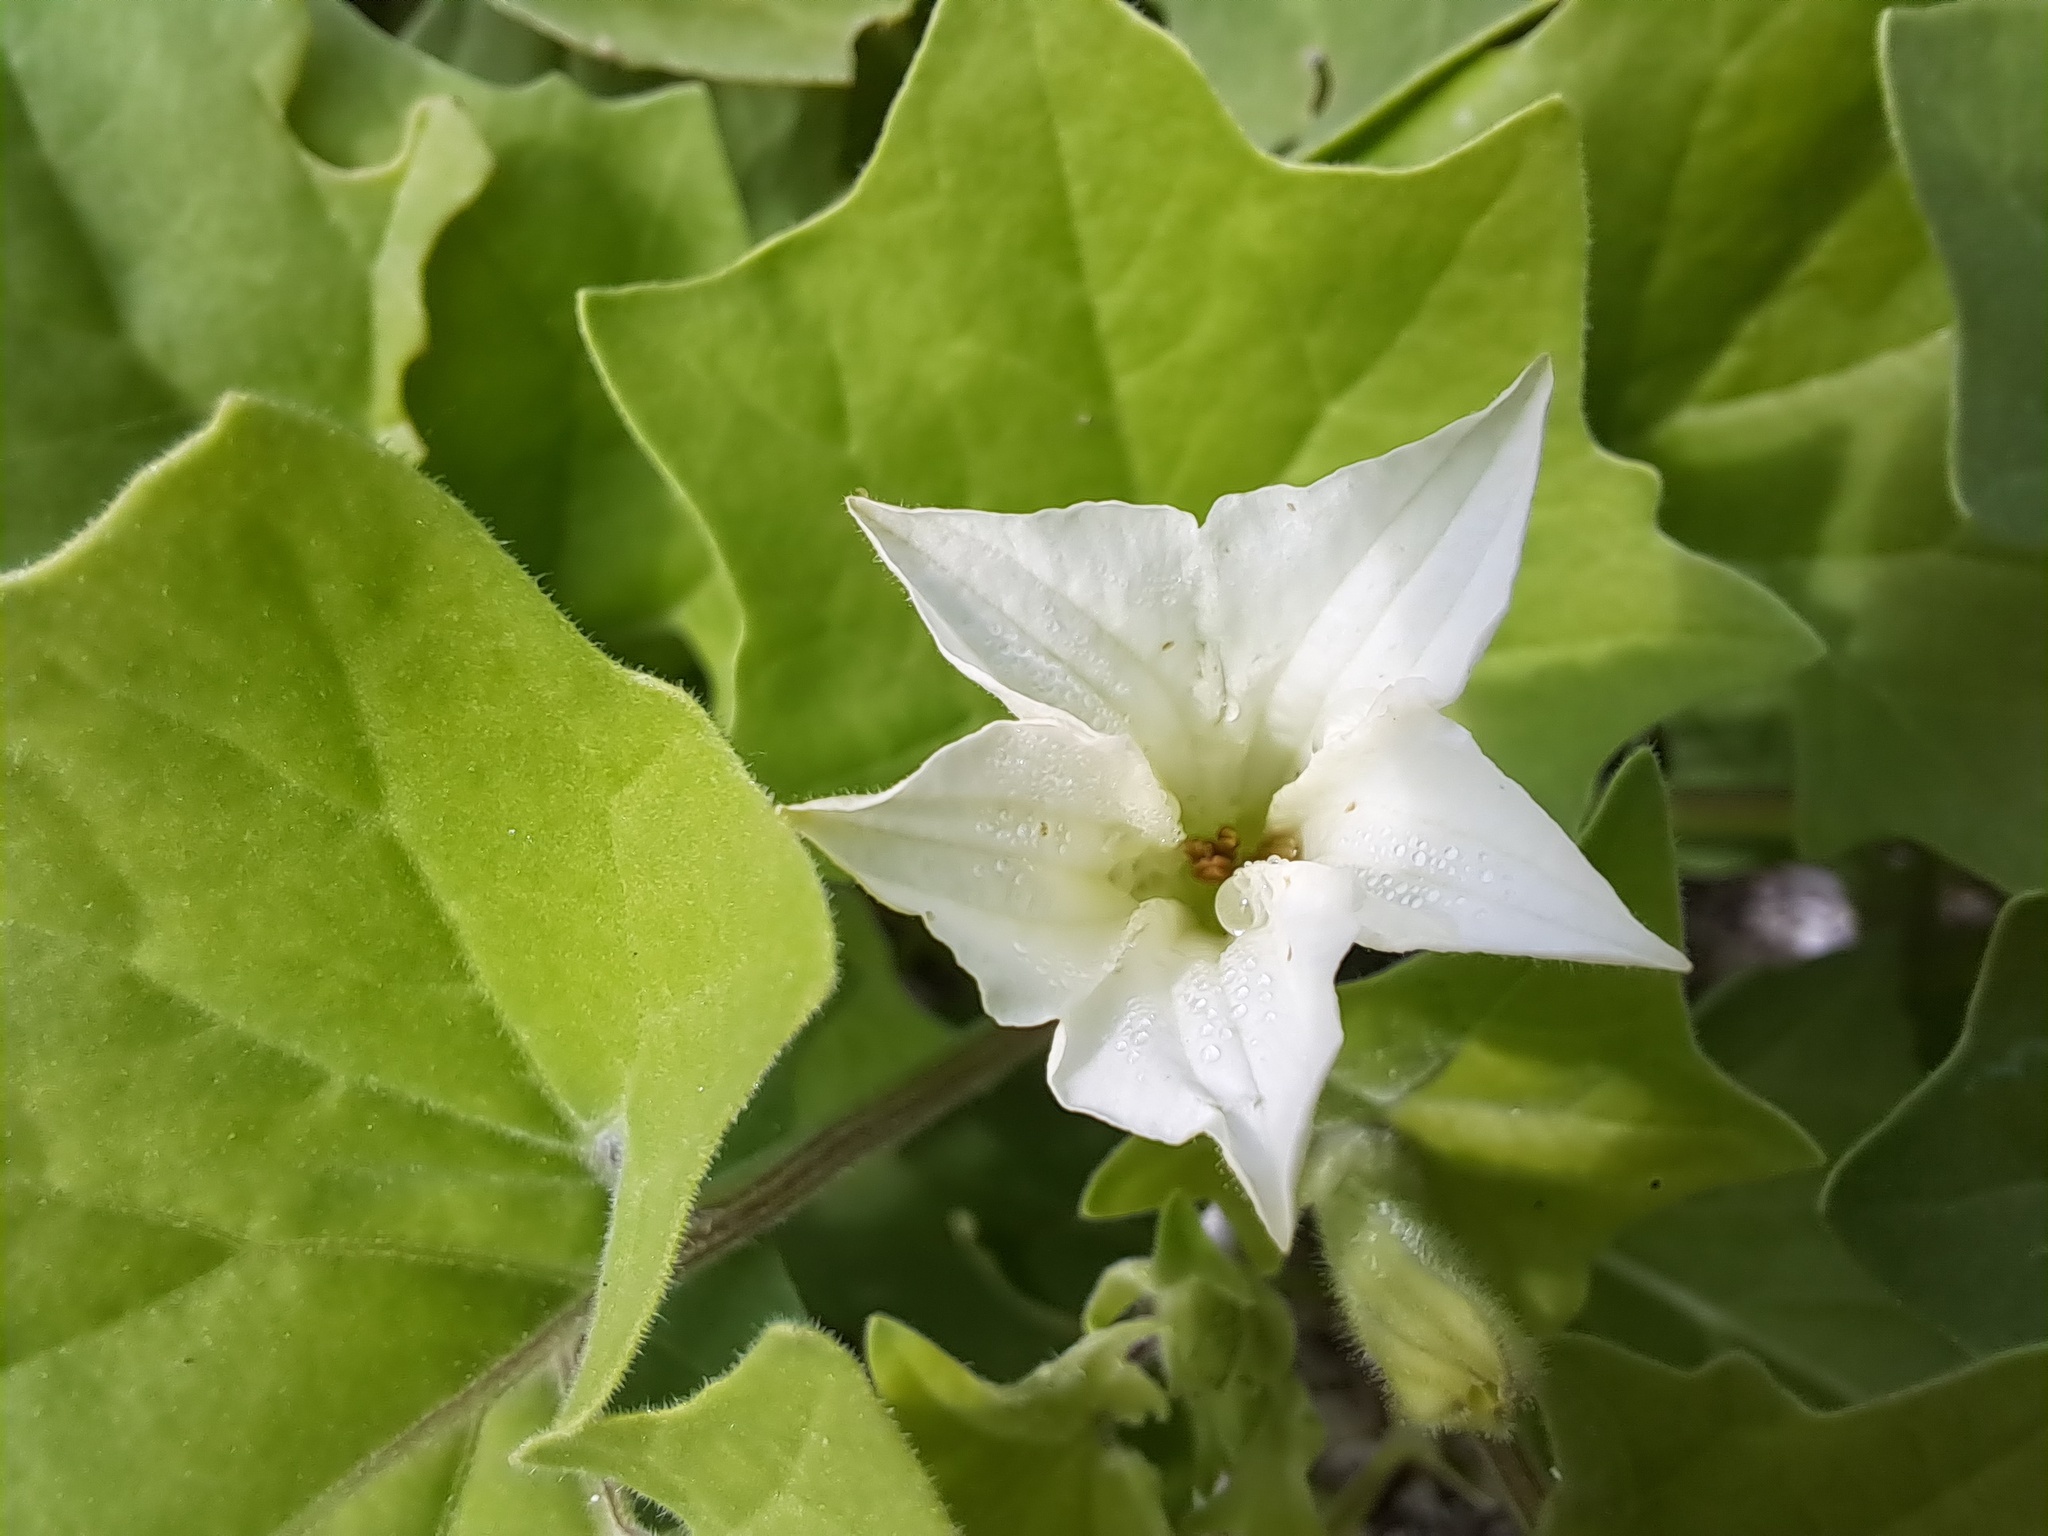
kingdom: Plantae
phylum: Tracheophyta
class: Magnoliopsida
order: Solanales
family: Solanaceae
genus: Exodeconus
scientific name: Exodeconus miersii
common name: Galapagos shore petunia
